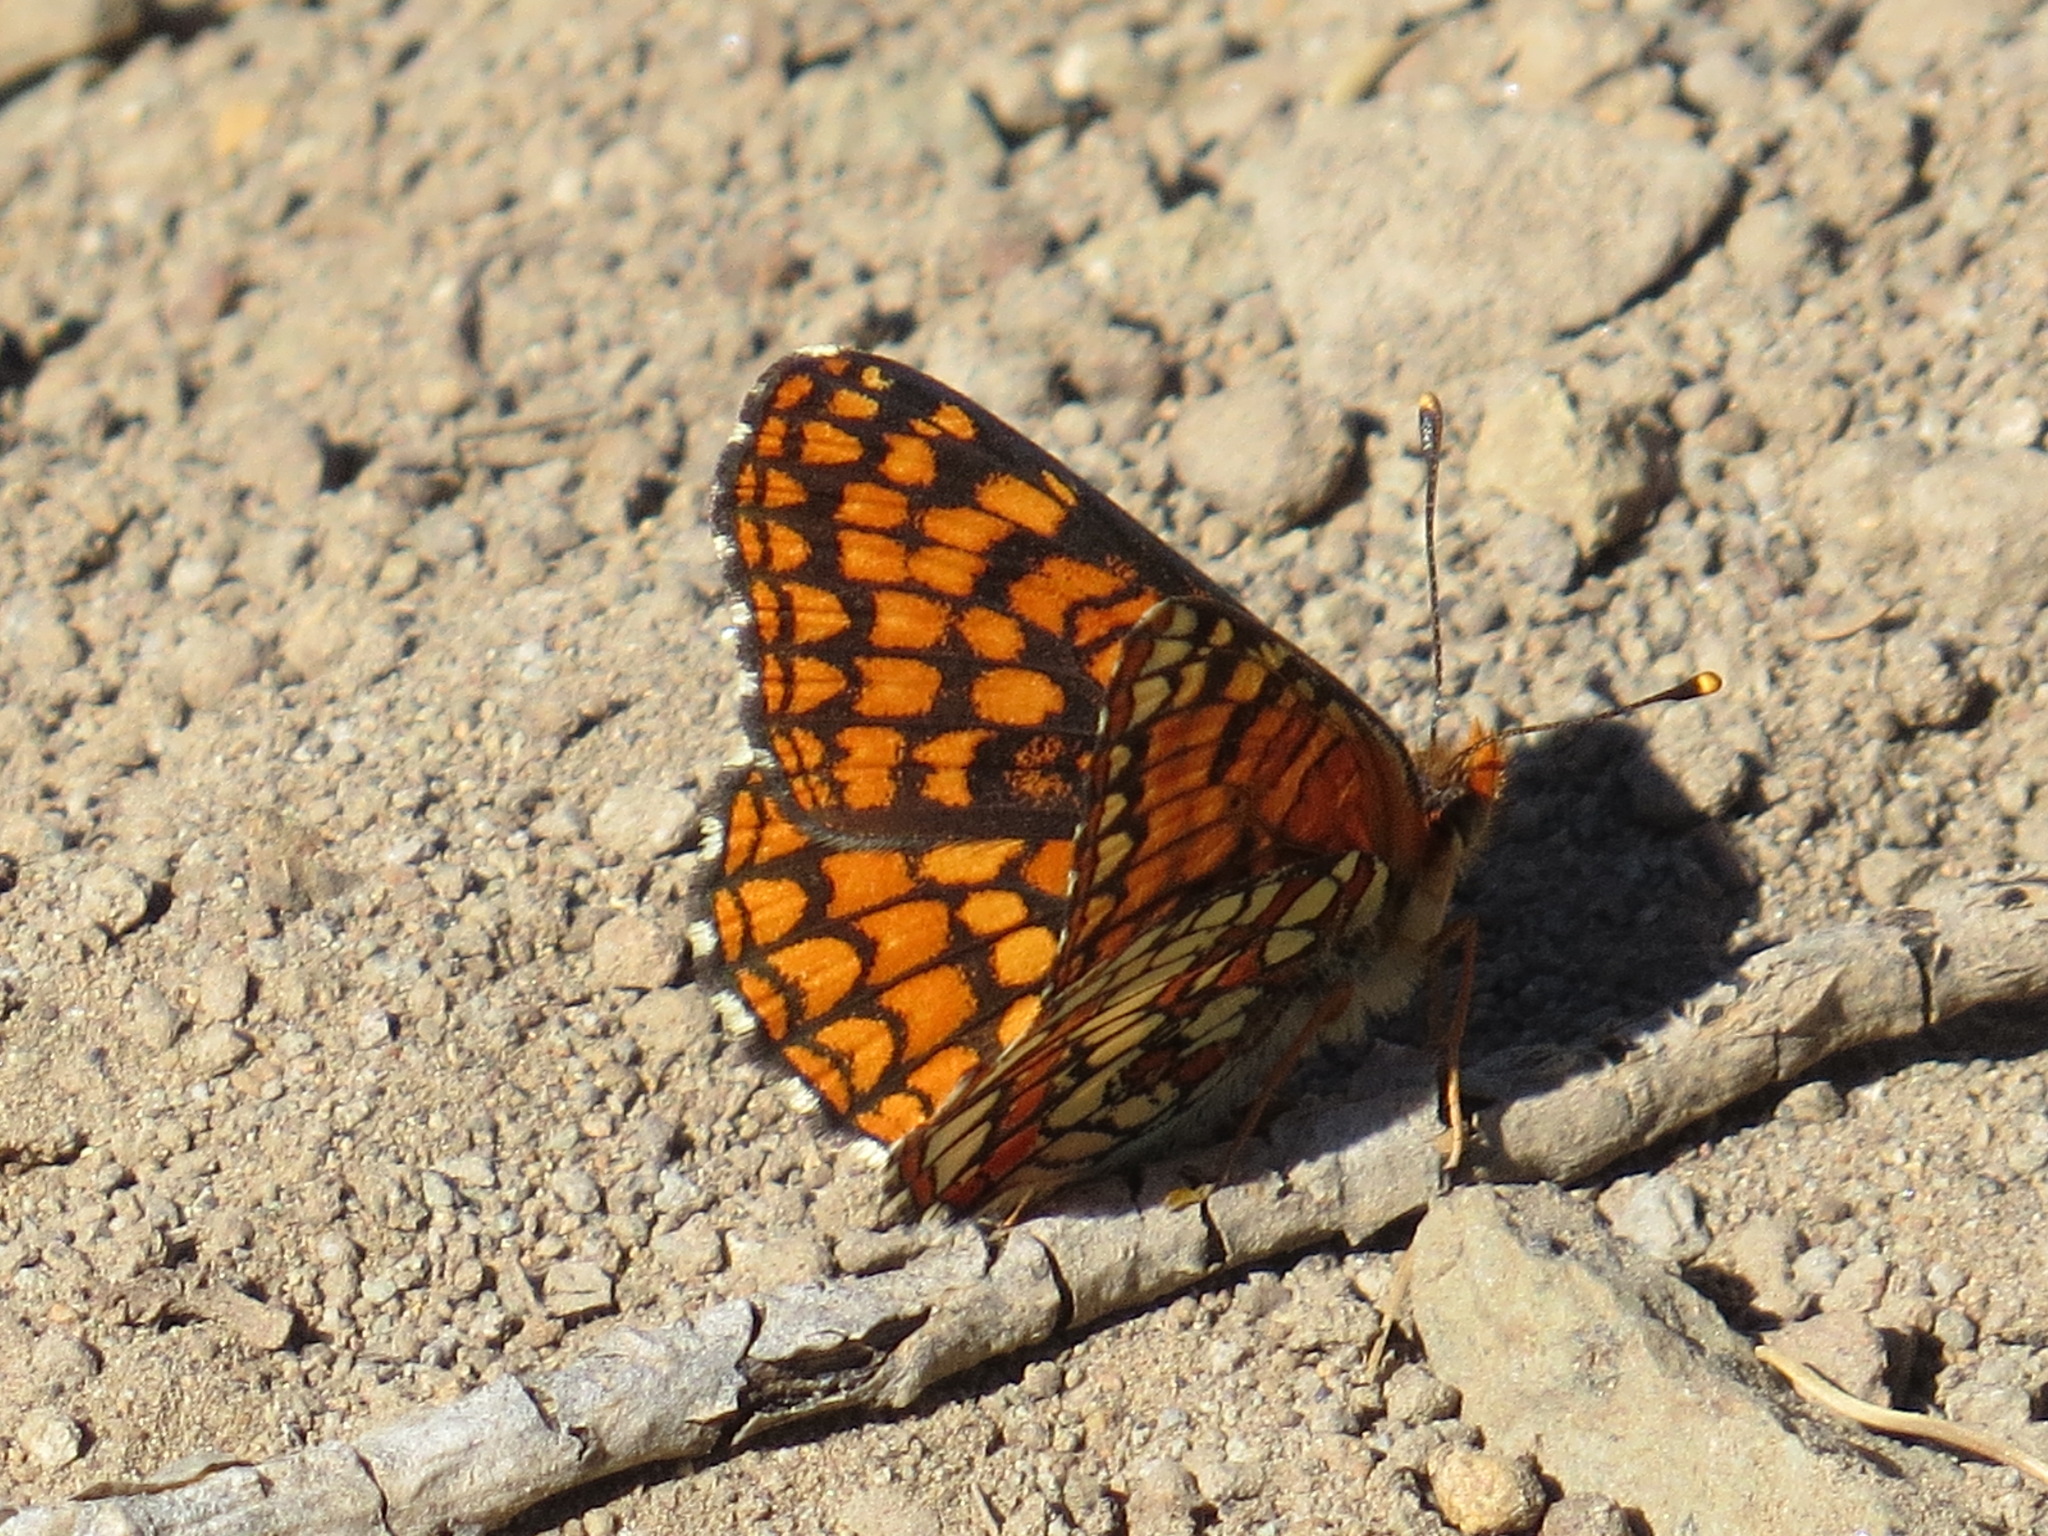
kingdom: Animalia
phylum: Arthropoda
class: Insecta
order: Lepidoptera
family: Nymphalidae
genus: Chlosyne
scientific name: Chlosyne palla
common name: Northern checkerspot
